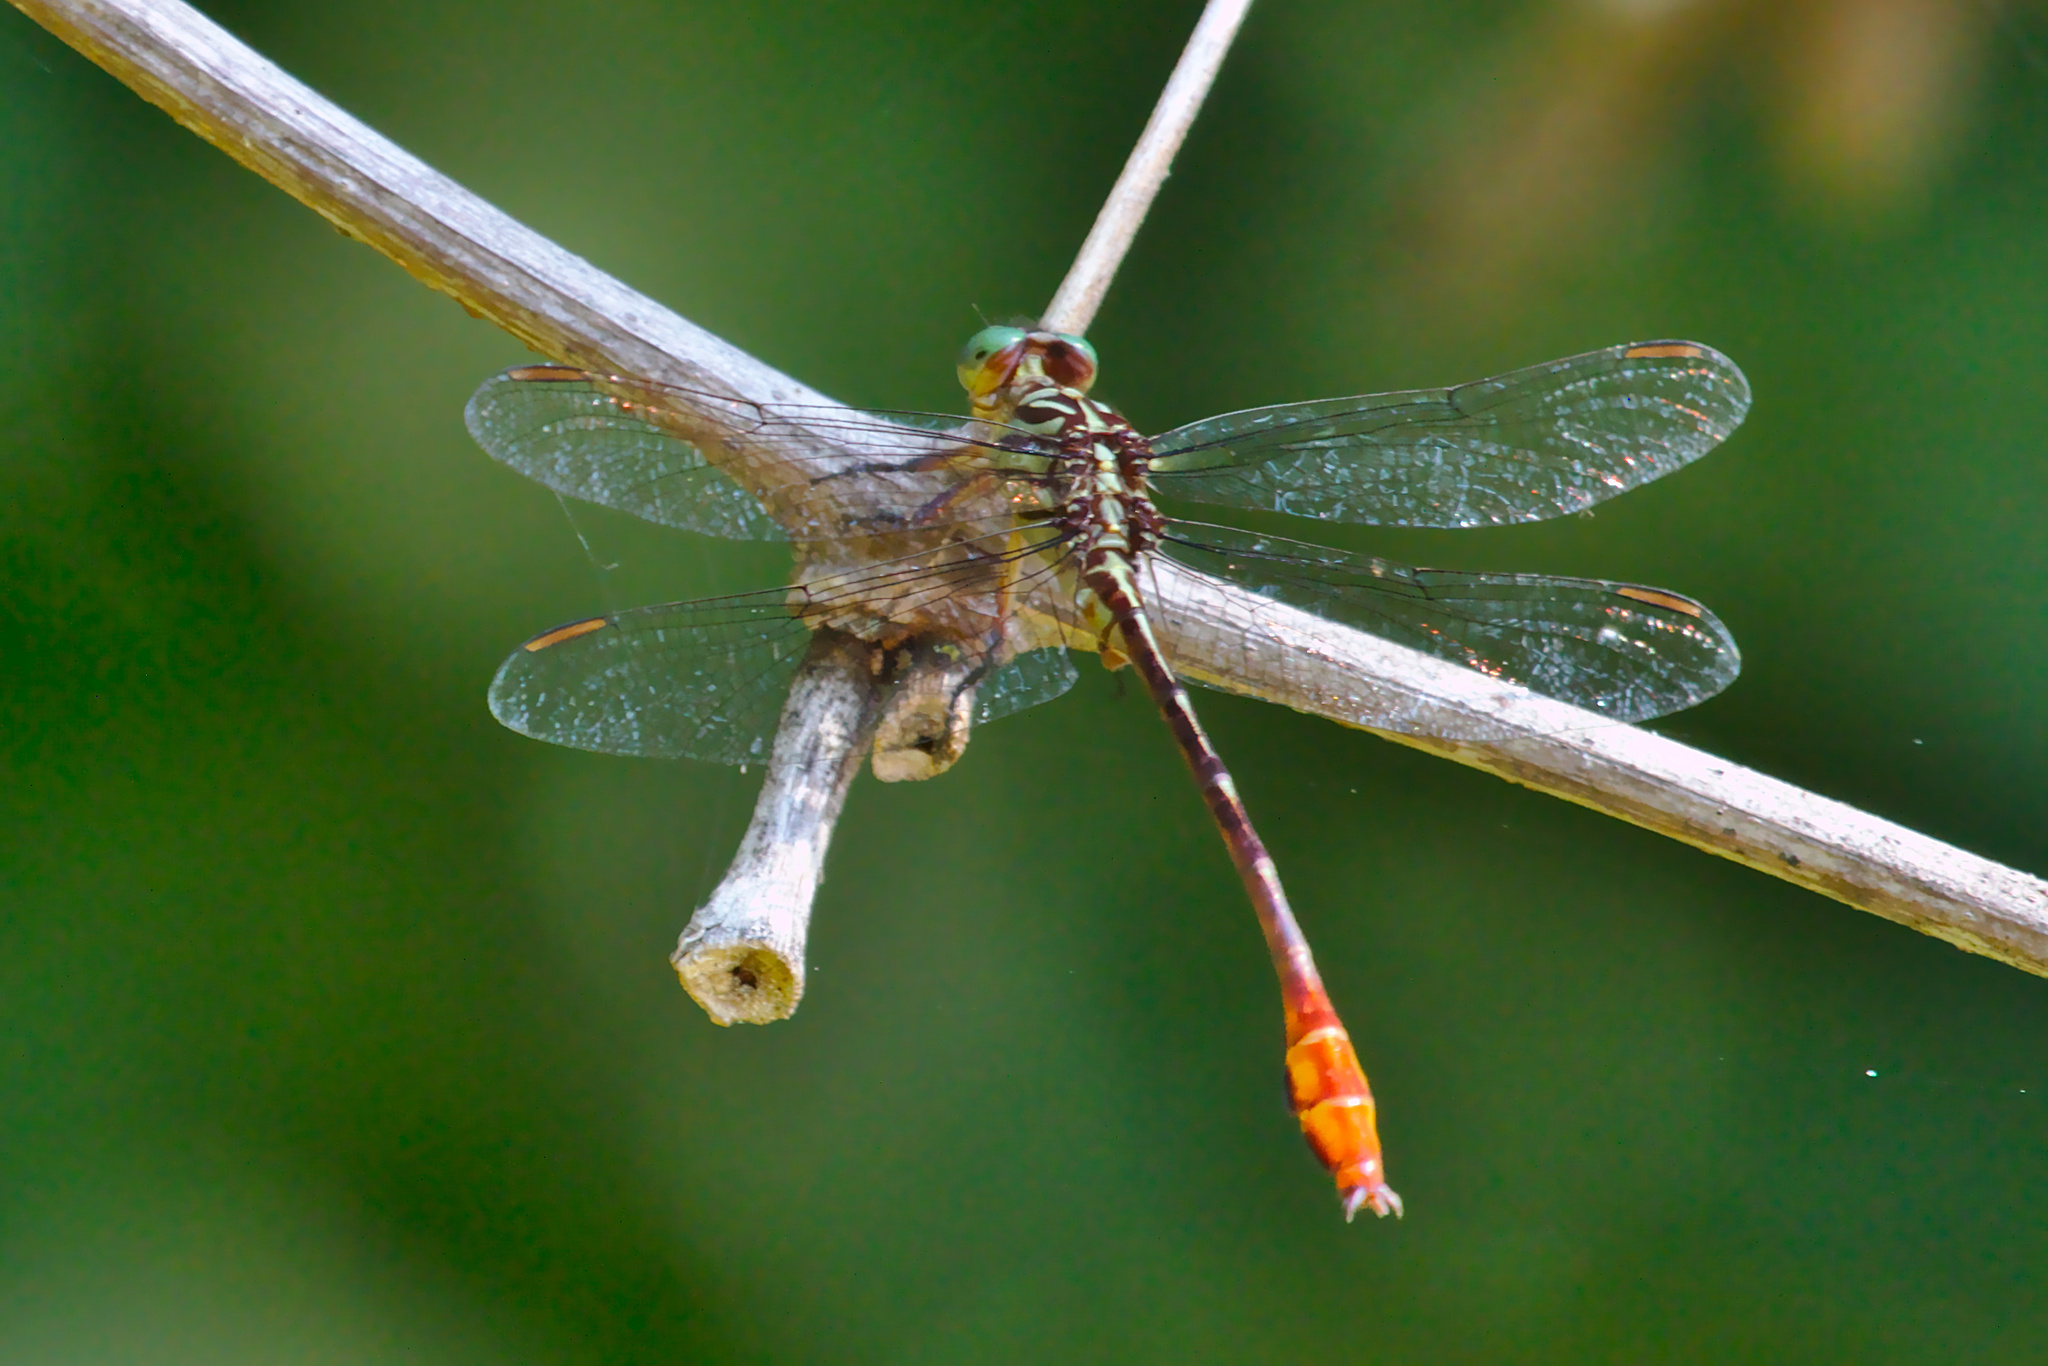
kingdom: Animalia
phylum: Arthropoda
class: Insecta
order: Odonata
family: Gomphidae
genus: Stylurus
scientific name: Stylurus plagiatus
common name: Russet-tipped clubtail
